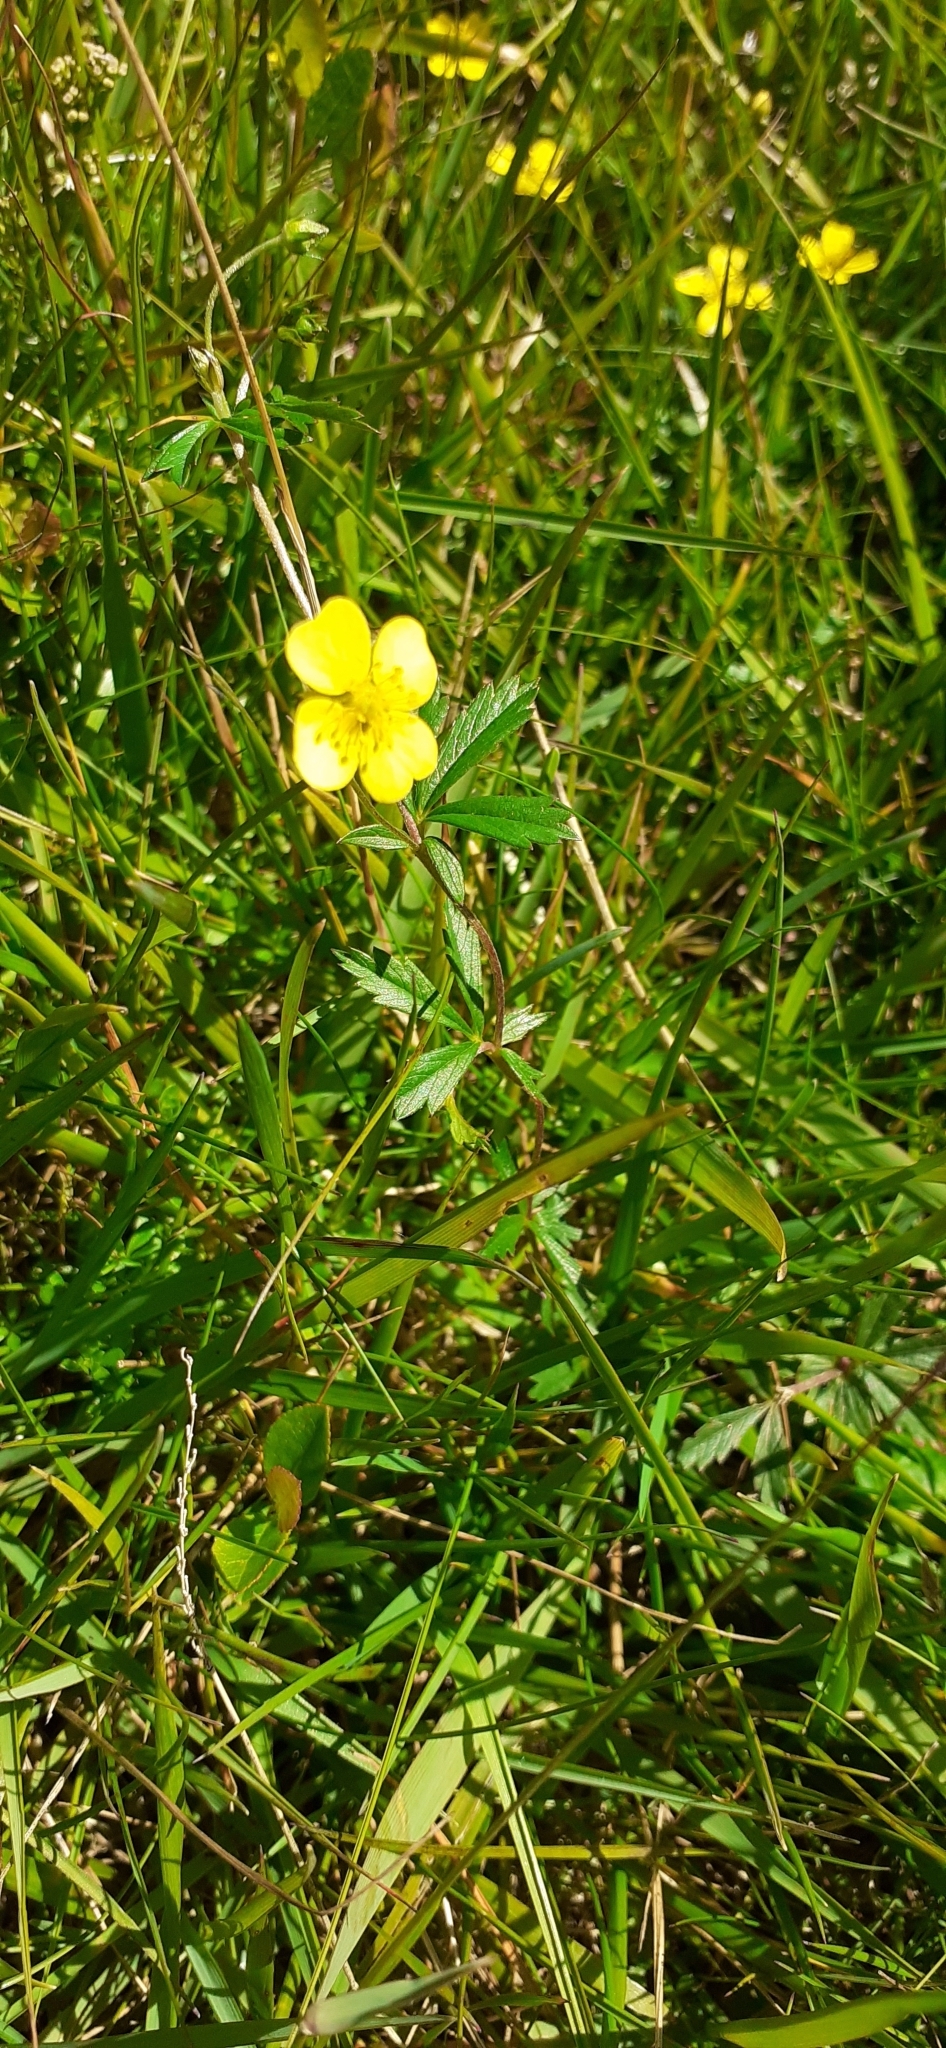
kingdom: Plantae
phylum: Tracheophyta
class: Magnoliopsida
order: Rosales
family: Rosaceae
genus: Potentilla
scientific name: Potentilla erecta
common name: Tormentil
